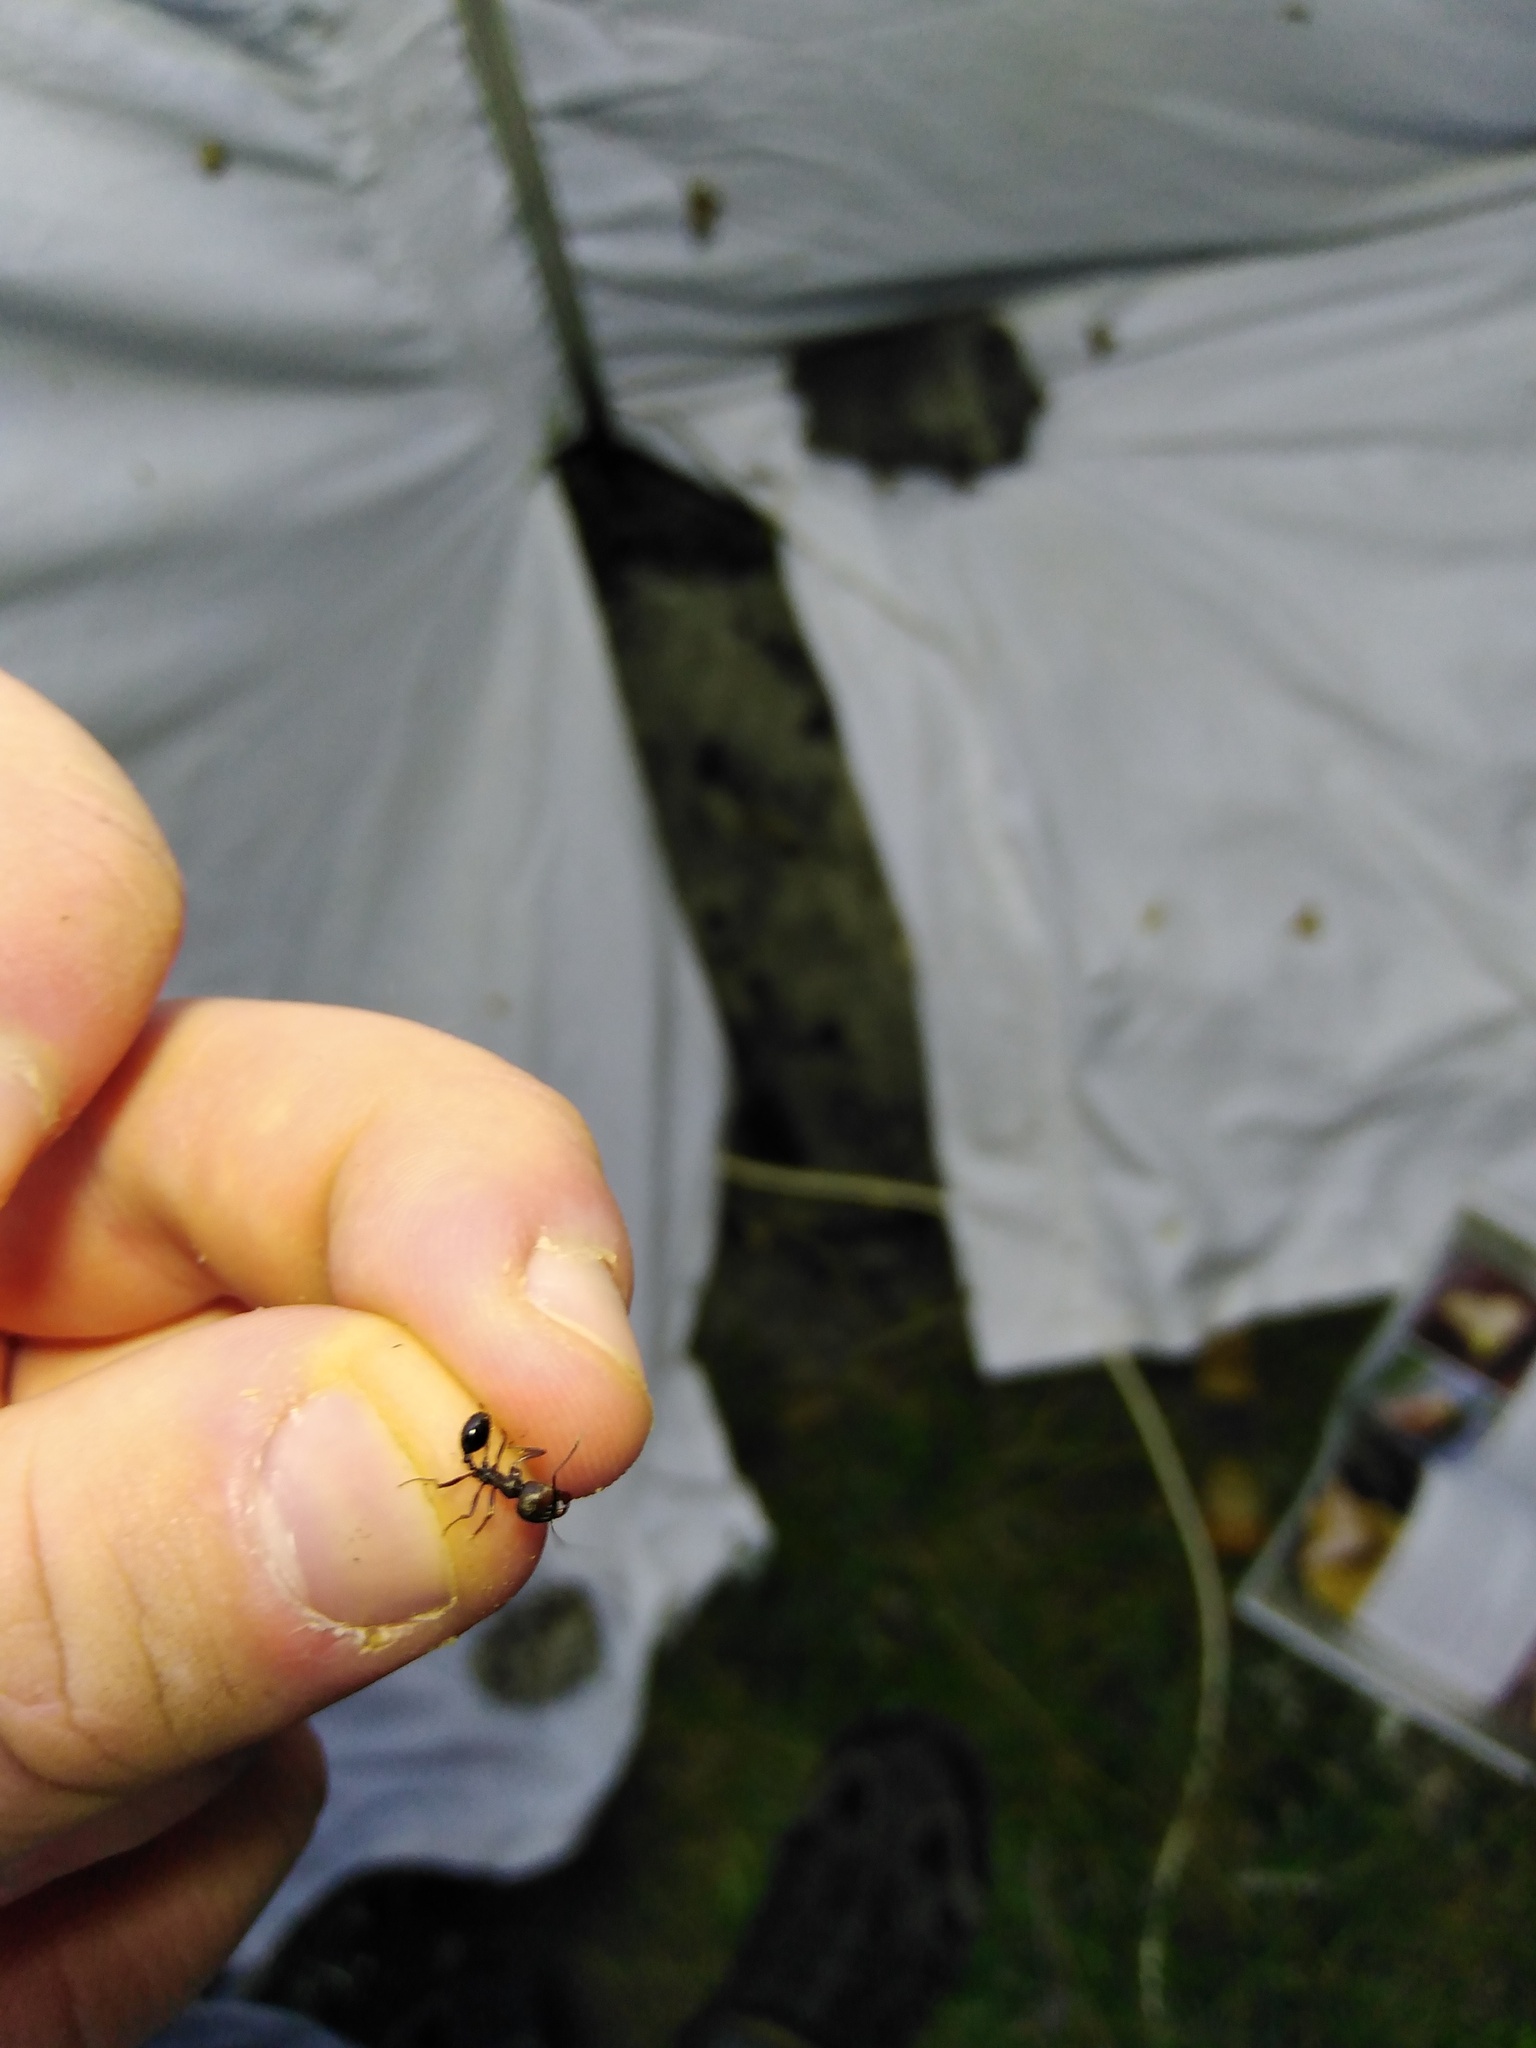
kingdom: Animalia
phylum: Arthropoda
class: Insecta
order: Hymenoptera
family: Formicidae
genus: Messor
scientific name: Messor structor
